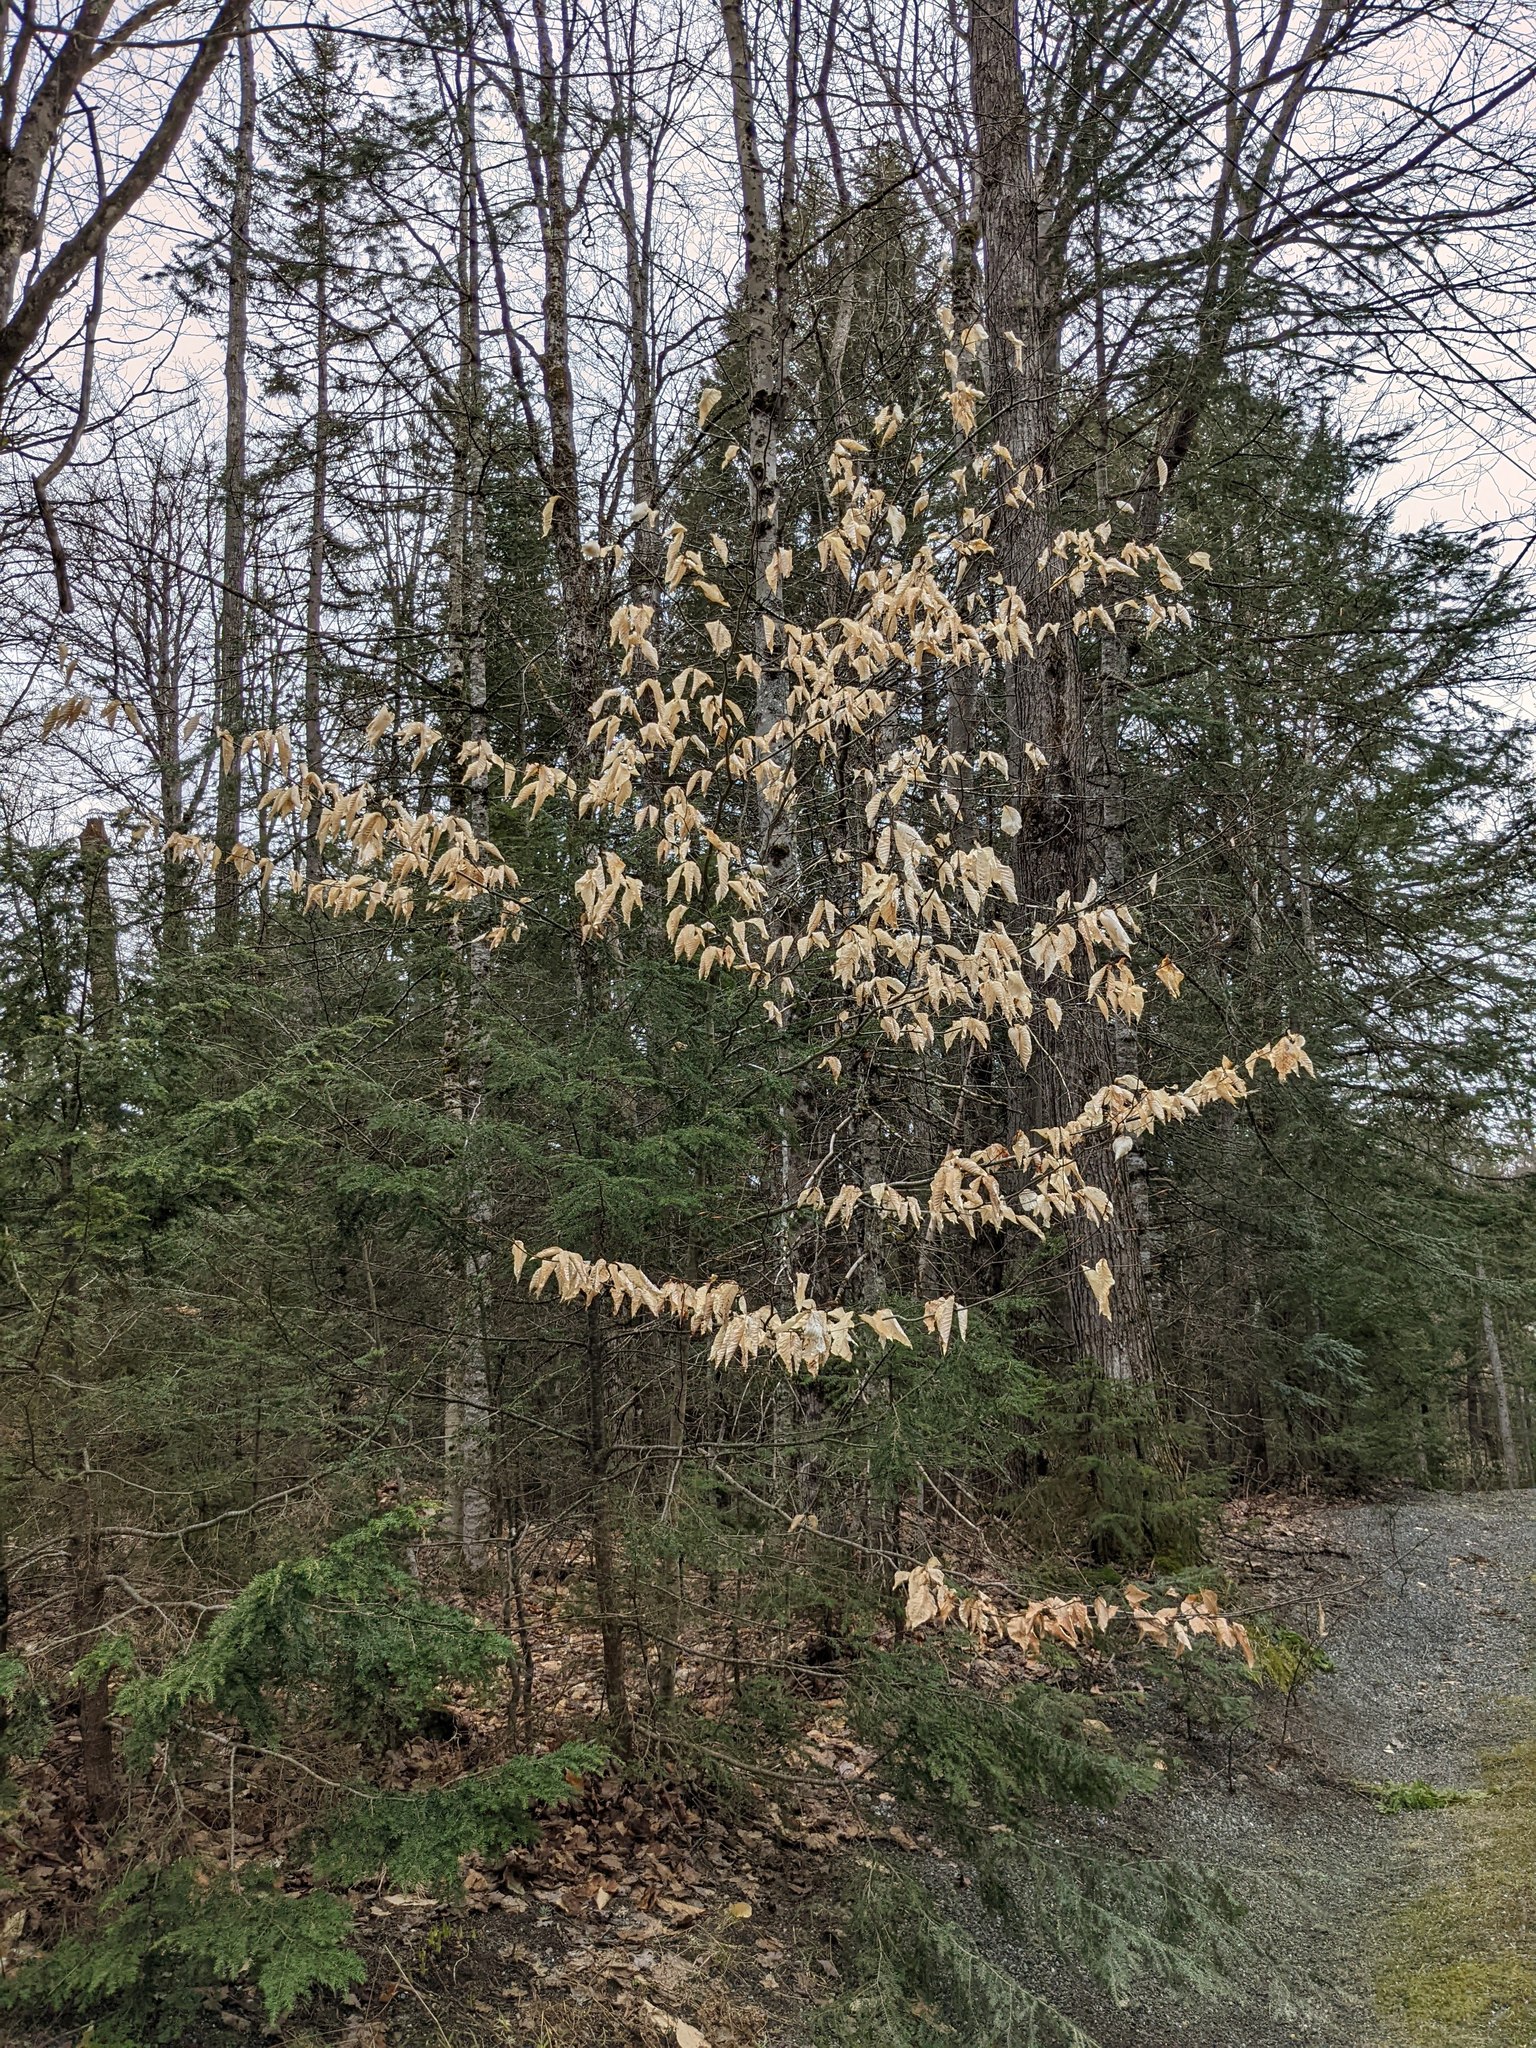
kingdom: Plantae
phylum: Tracheophyta
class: Magnoliopsida
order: Fagales
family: Fagaceae
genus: Fagus
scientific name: Fagus grandifolia
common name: American beech
